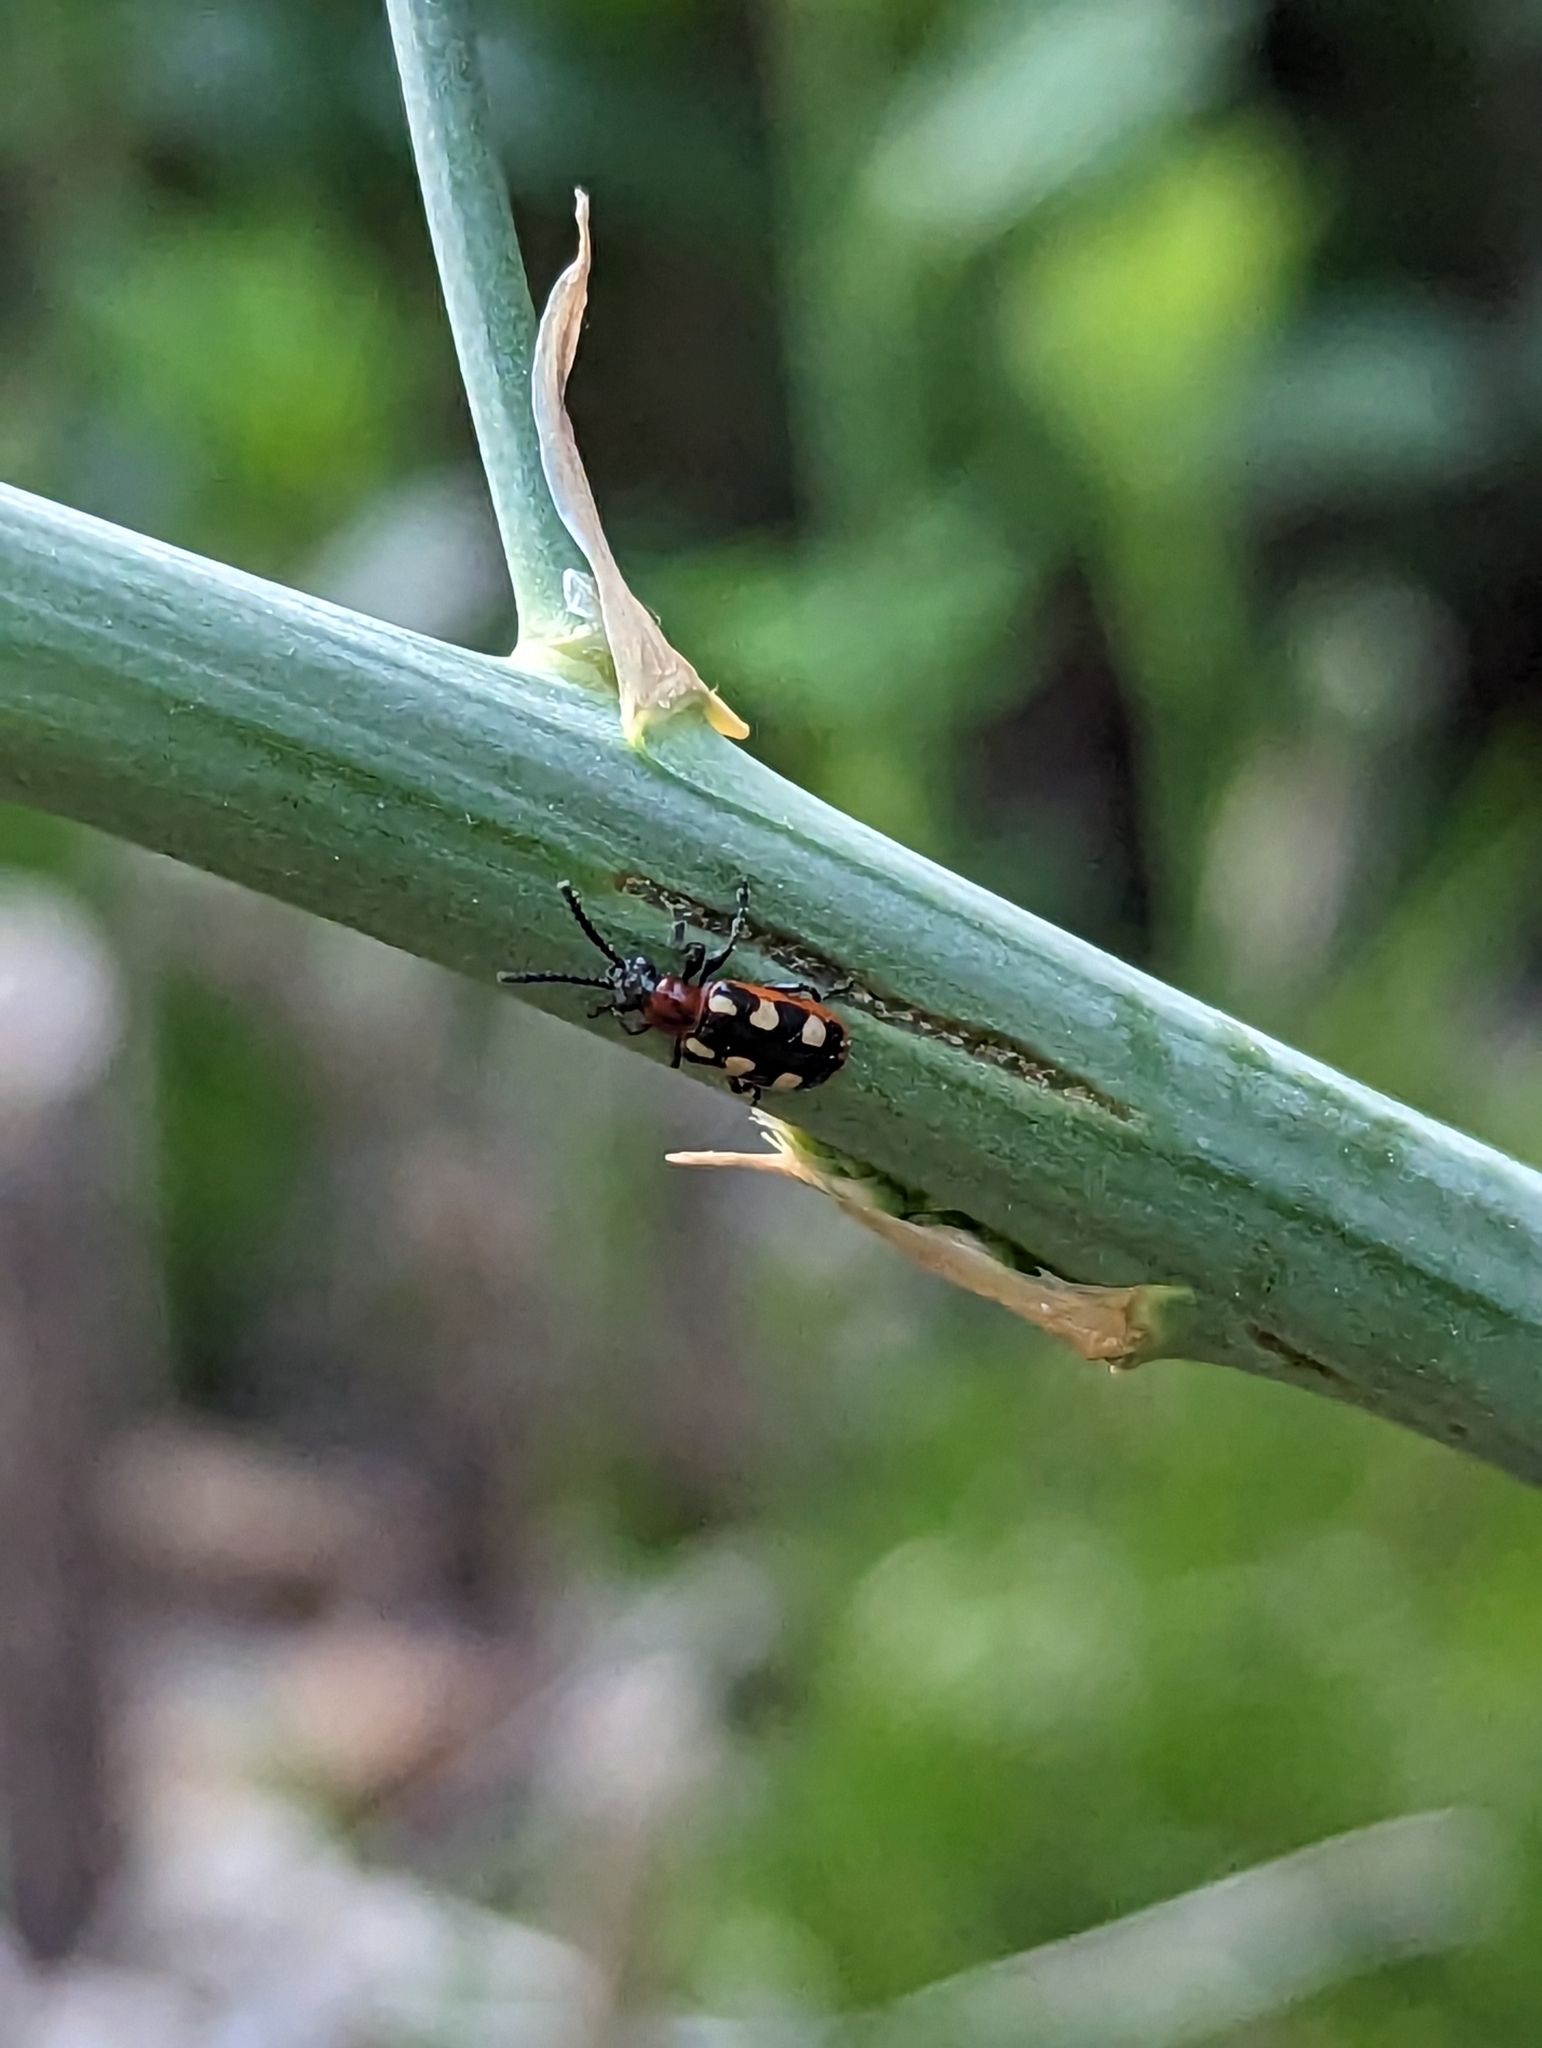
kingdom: Animalia
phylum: Arthropoda
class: Insecta
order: Coleoptera
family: Chrysomelidae
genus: Crioceris
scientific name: Crioceris asparagi
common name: Asparagus beetle
